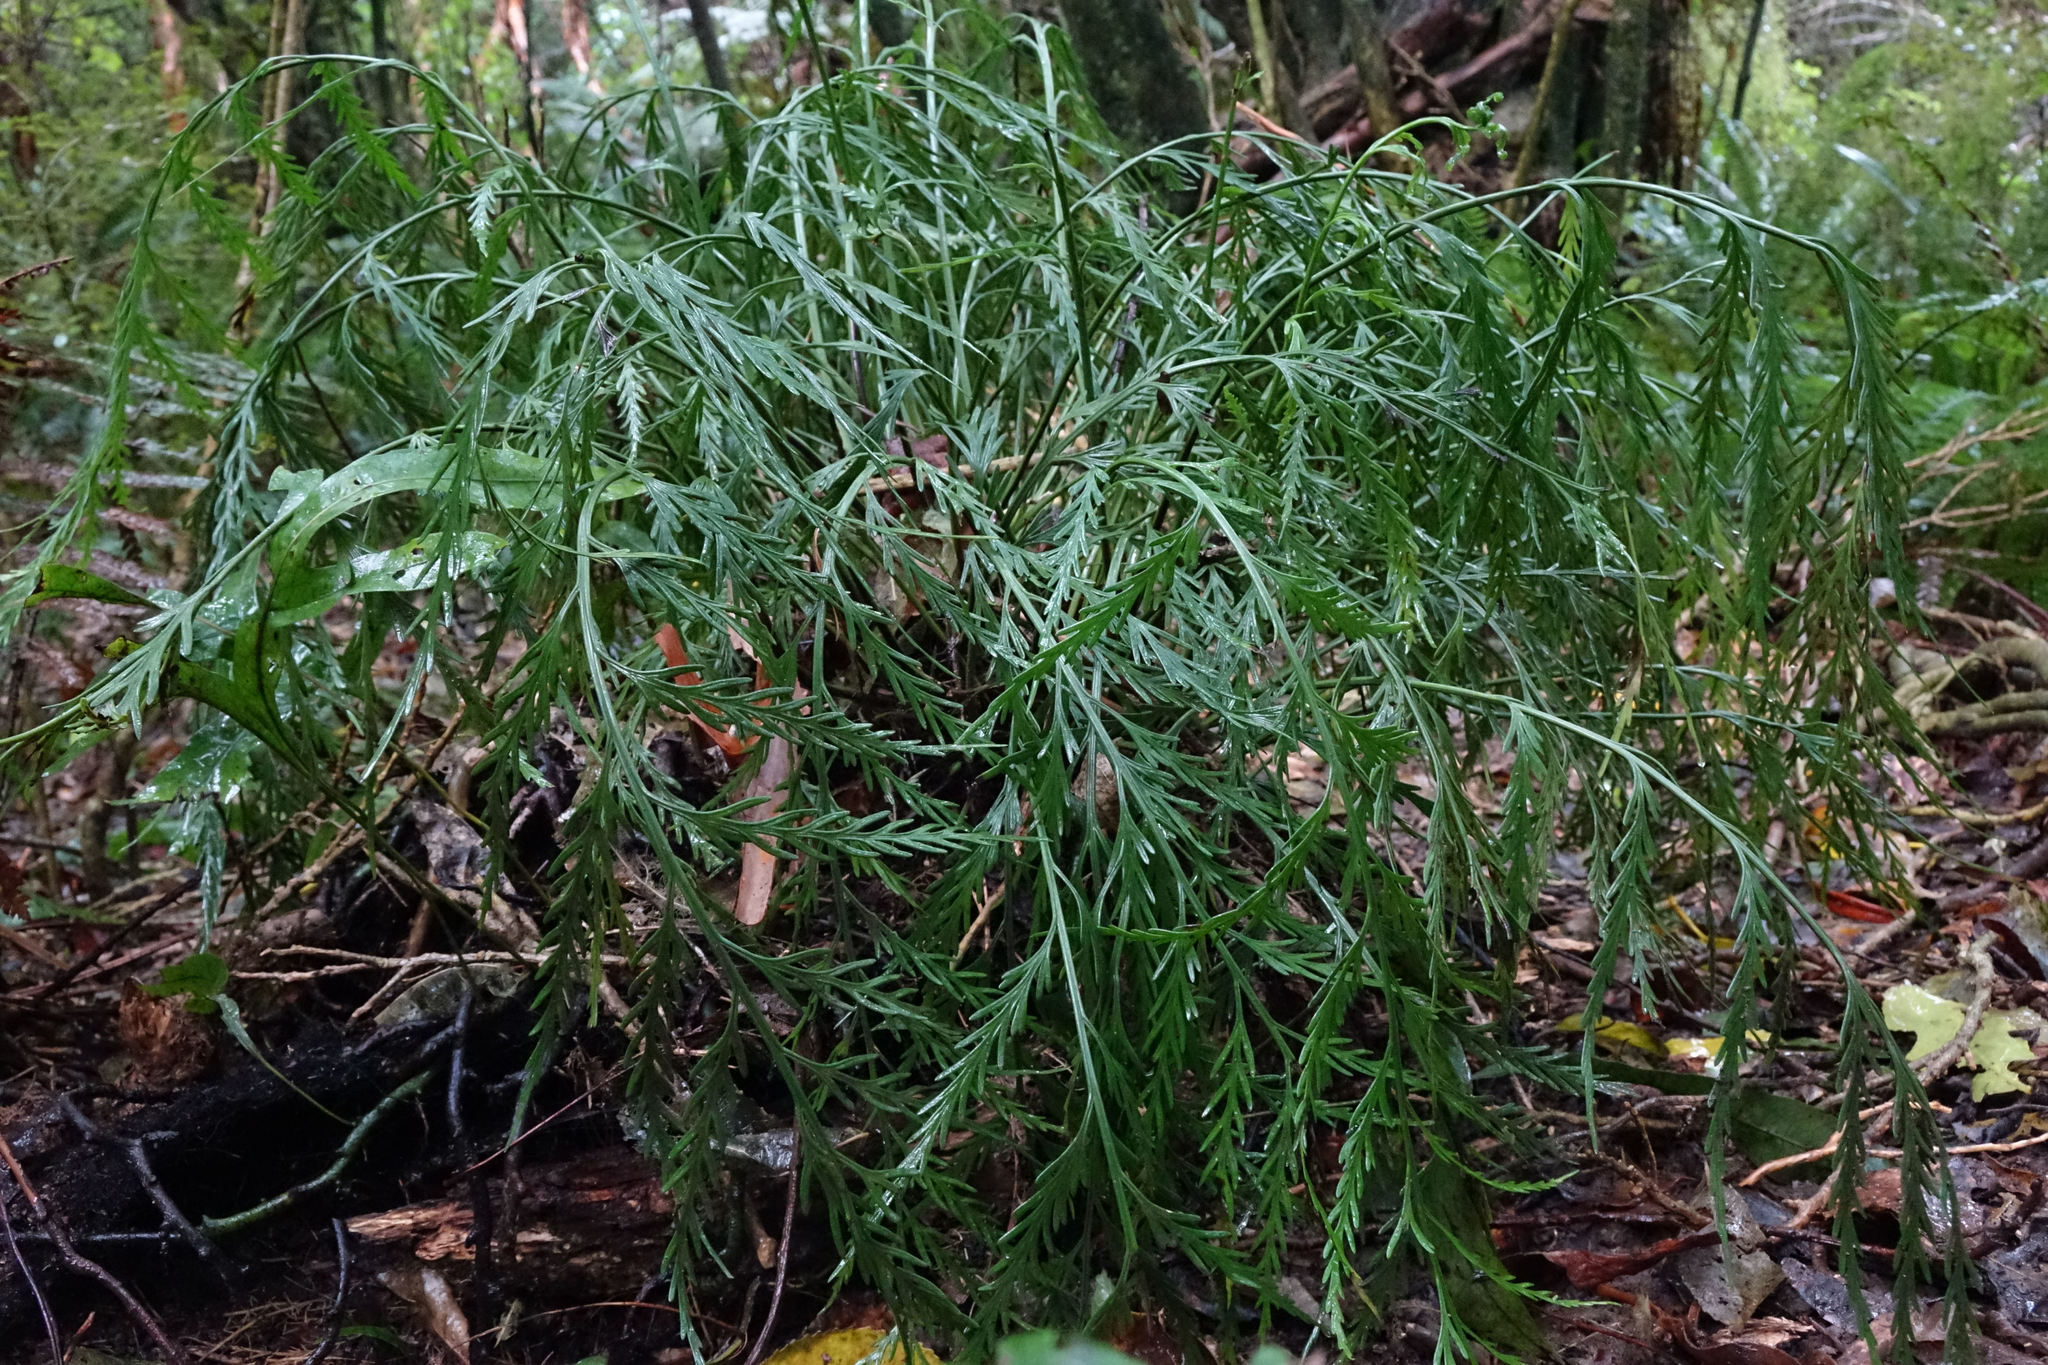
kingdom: Plantae
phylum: Tracheophyta
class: Polypodiopsida
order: Polypodiales
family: Aspleniaceae
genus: Asplenium
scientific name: Asplenium flaccidum
